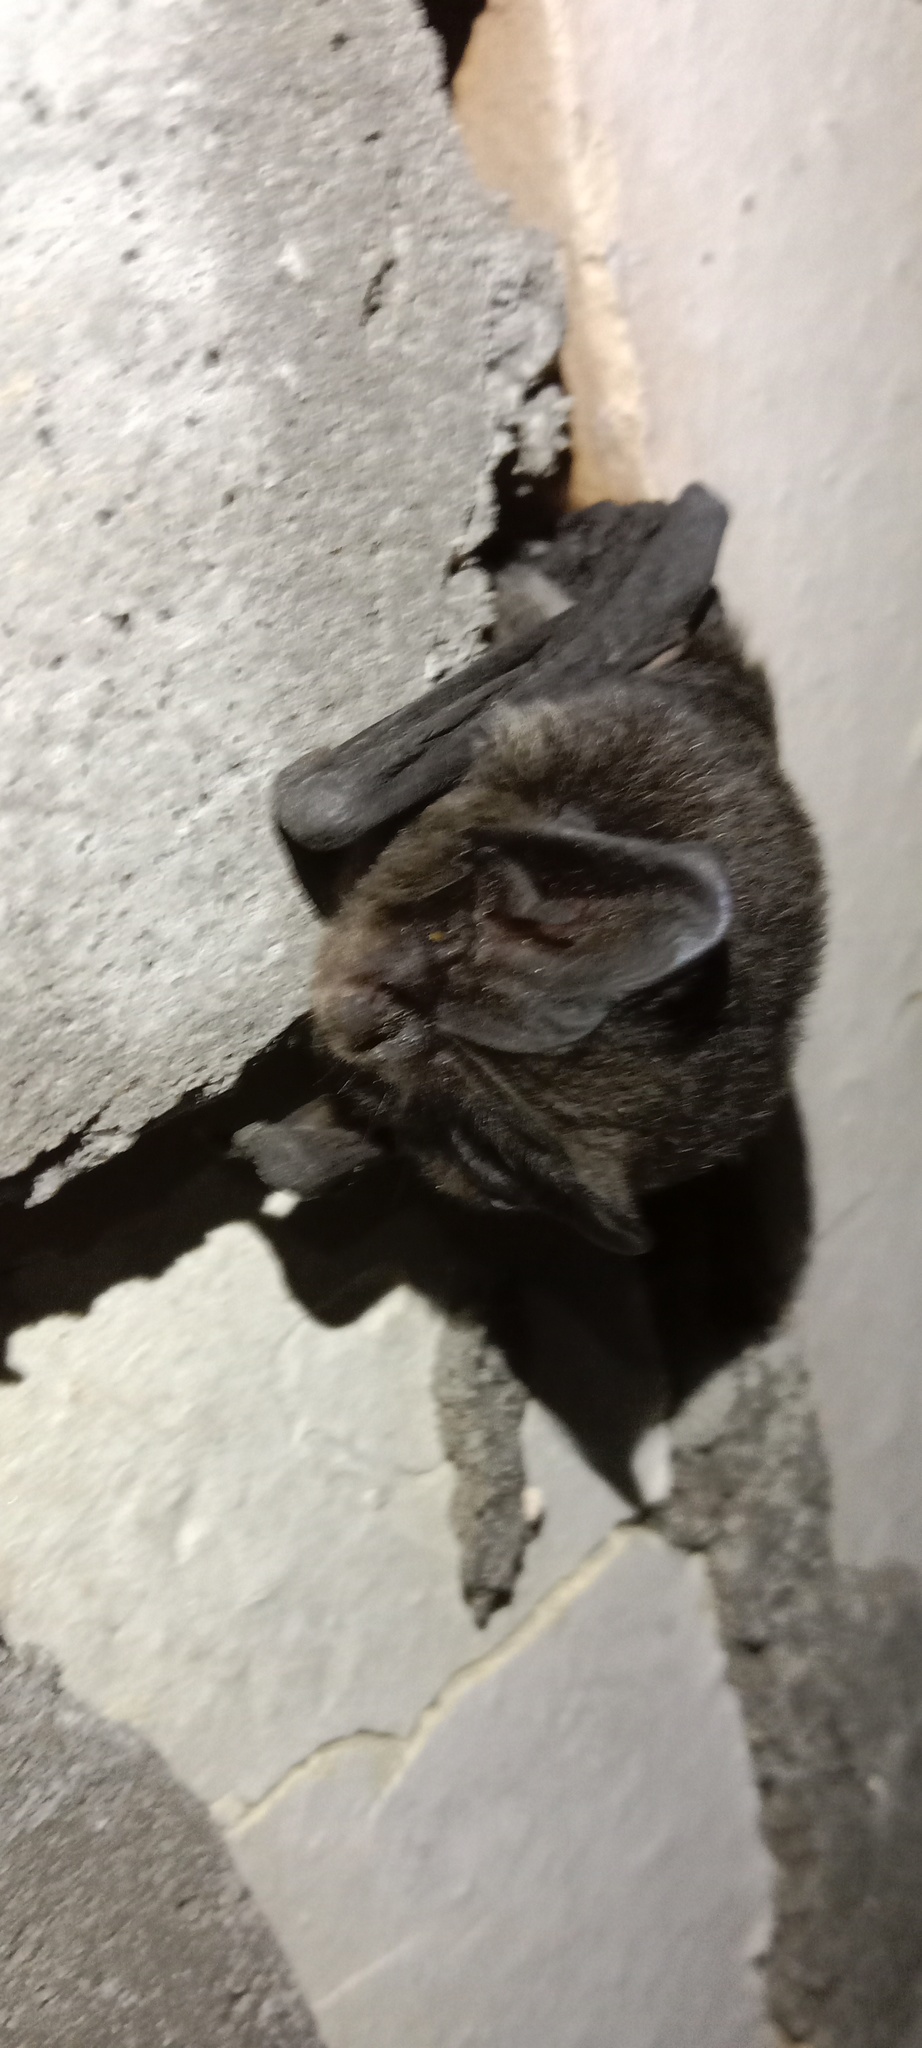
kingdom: Animalia
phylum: Chordata
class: Mammalia
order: Chiroptera
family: Vespertilionidae
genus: Barbastella
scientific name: Barbastella barbastellus
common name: Western barbastelle
